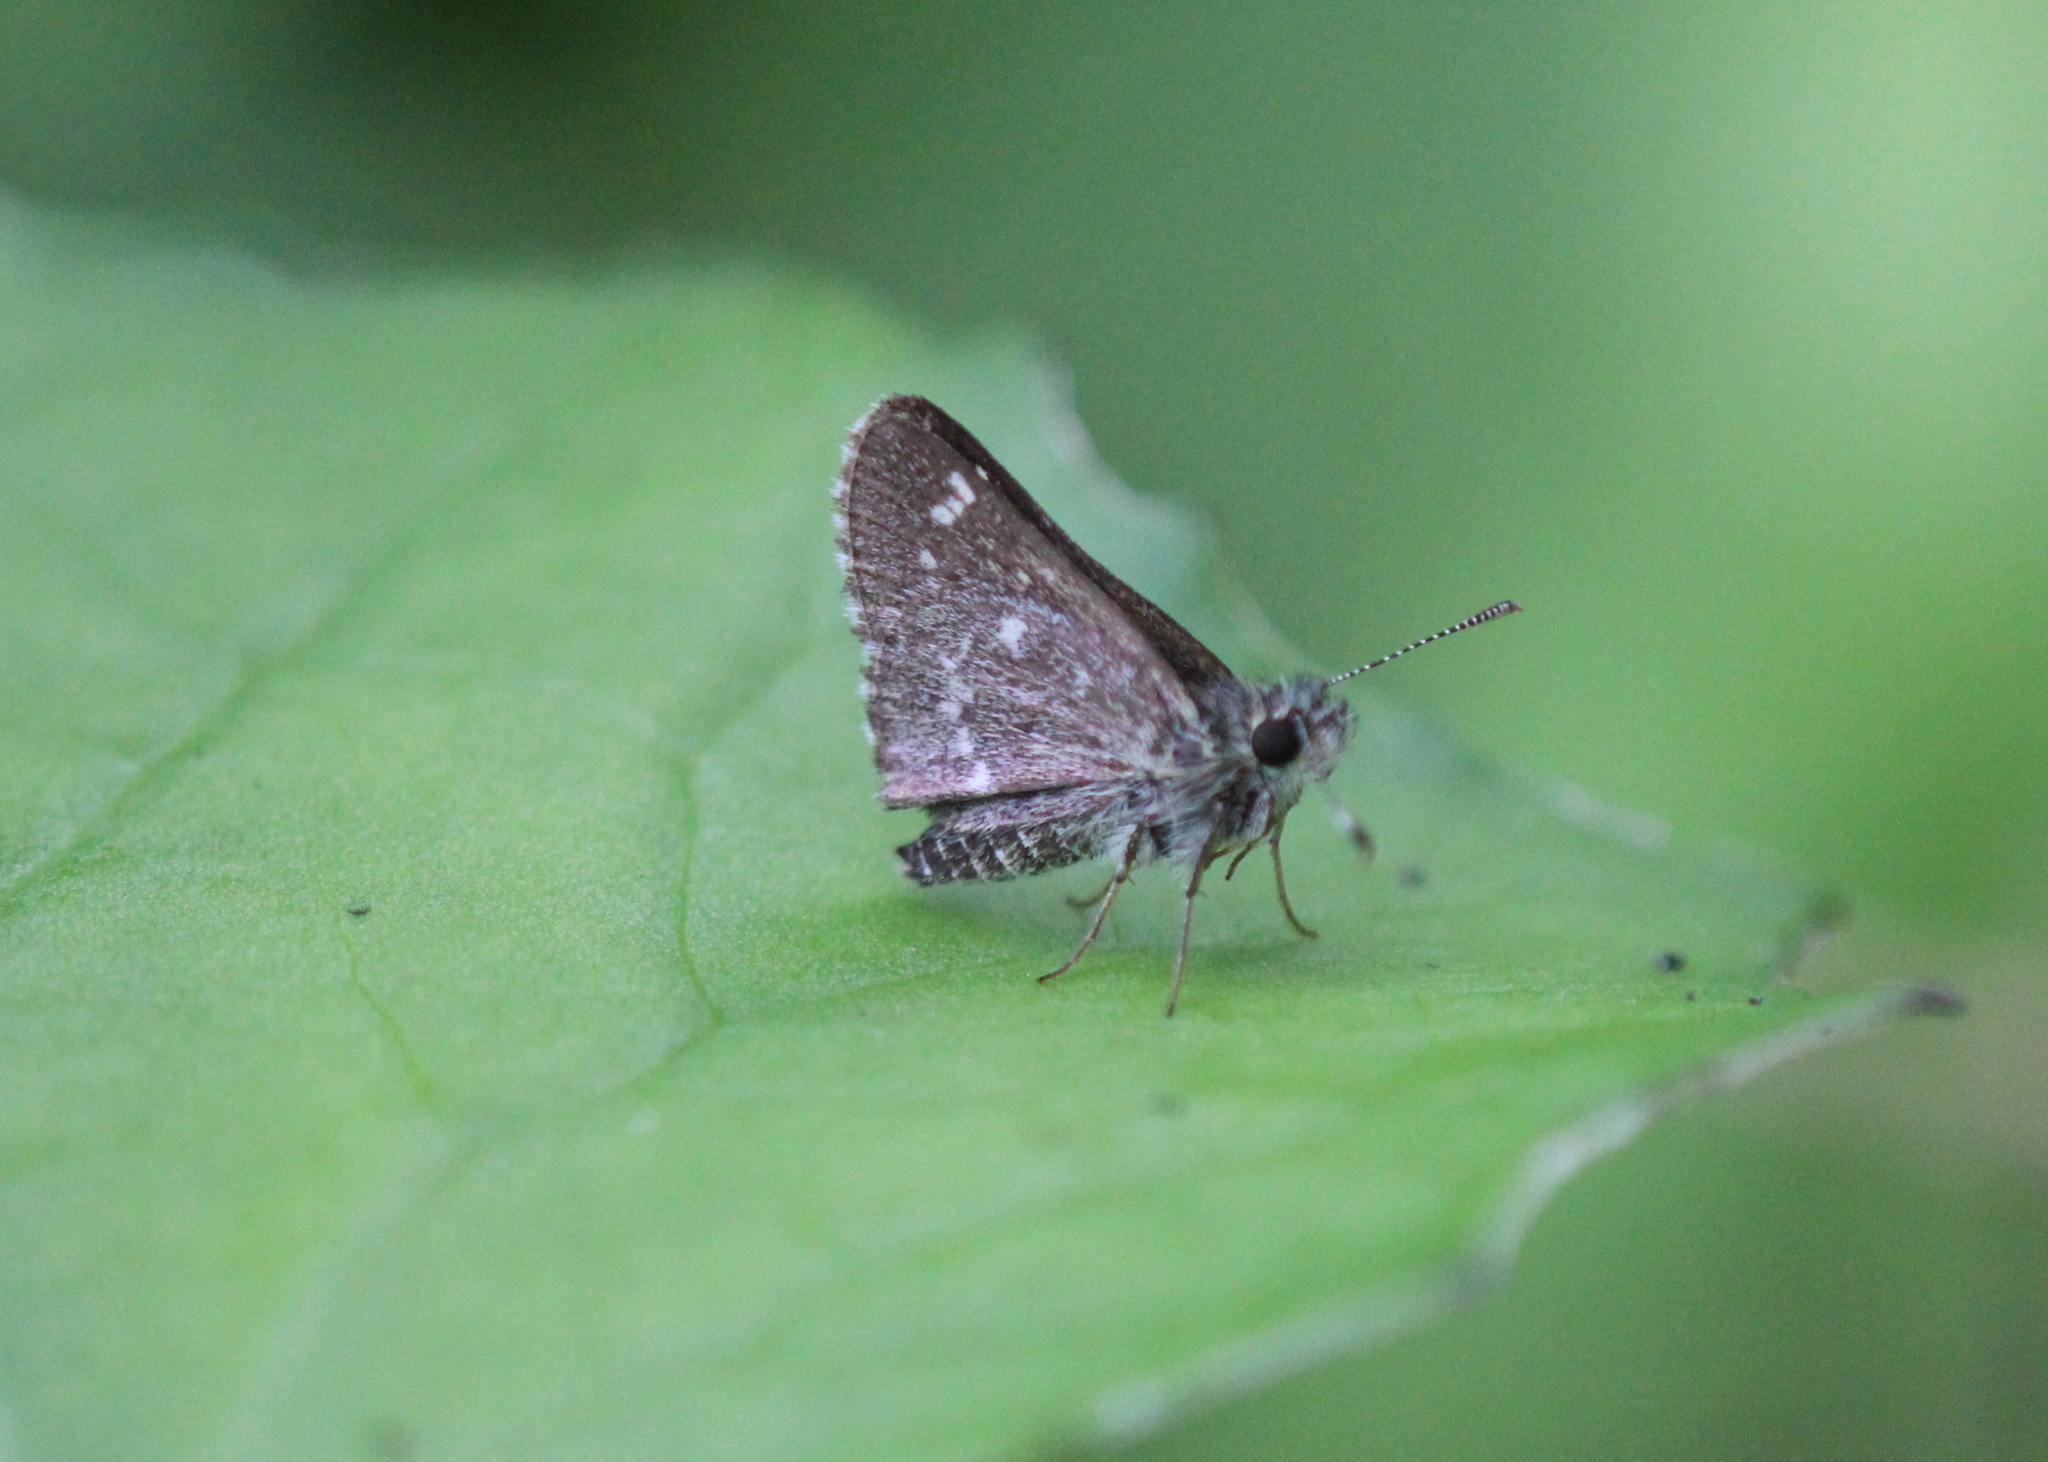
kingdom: Animalia
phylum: Arthropoda
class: Insecta
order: Lepidoptera
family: Hesperiidae
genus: Mastor
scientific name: Mastor hegon
